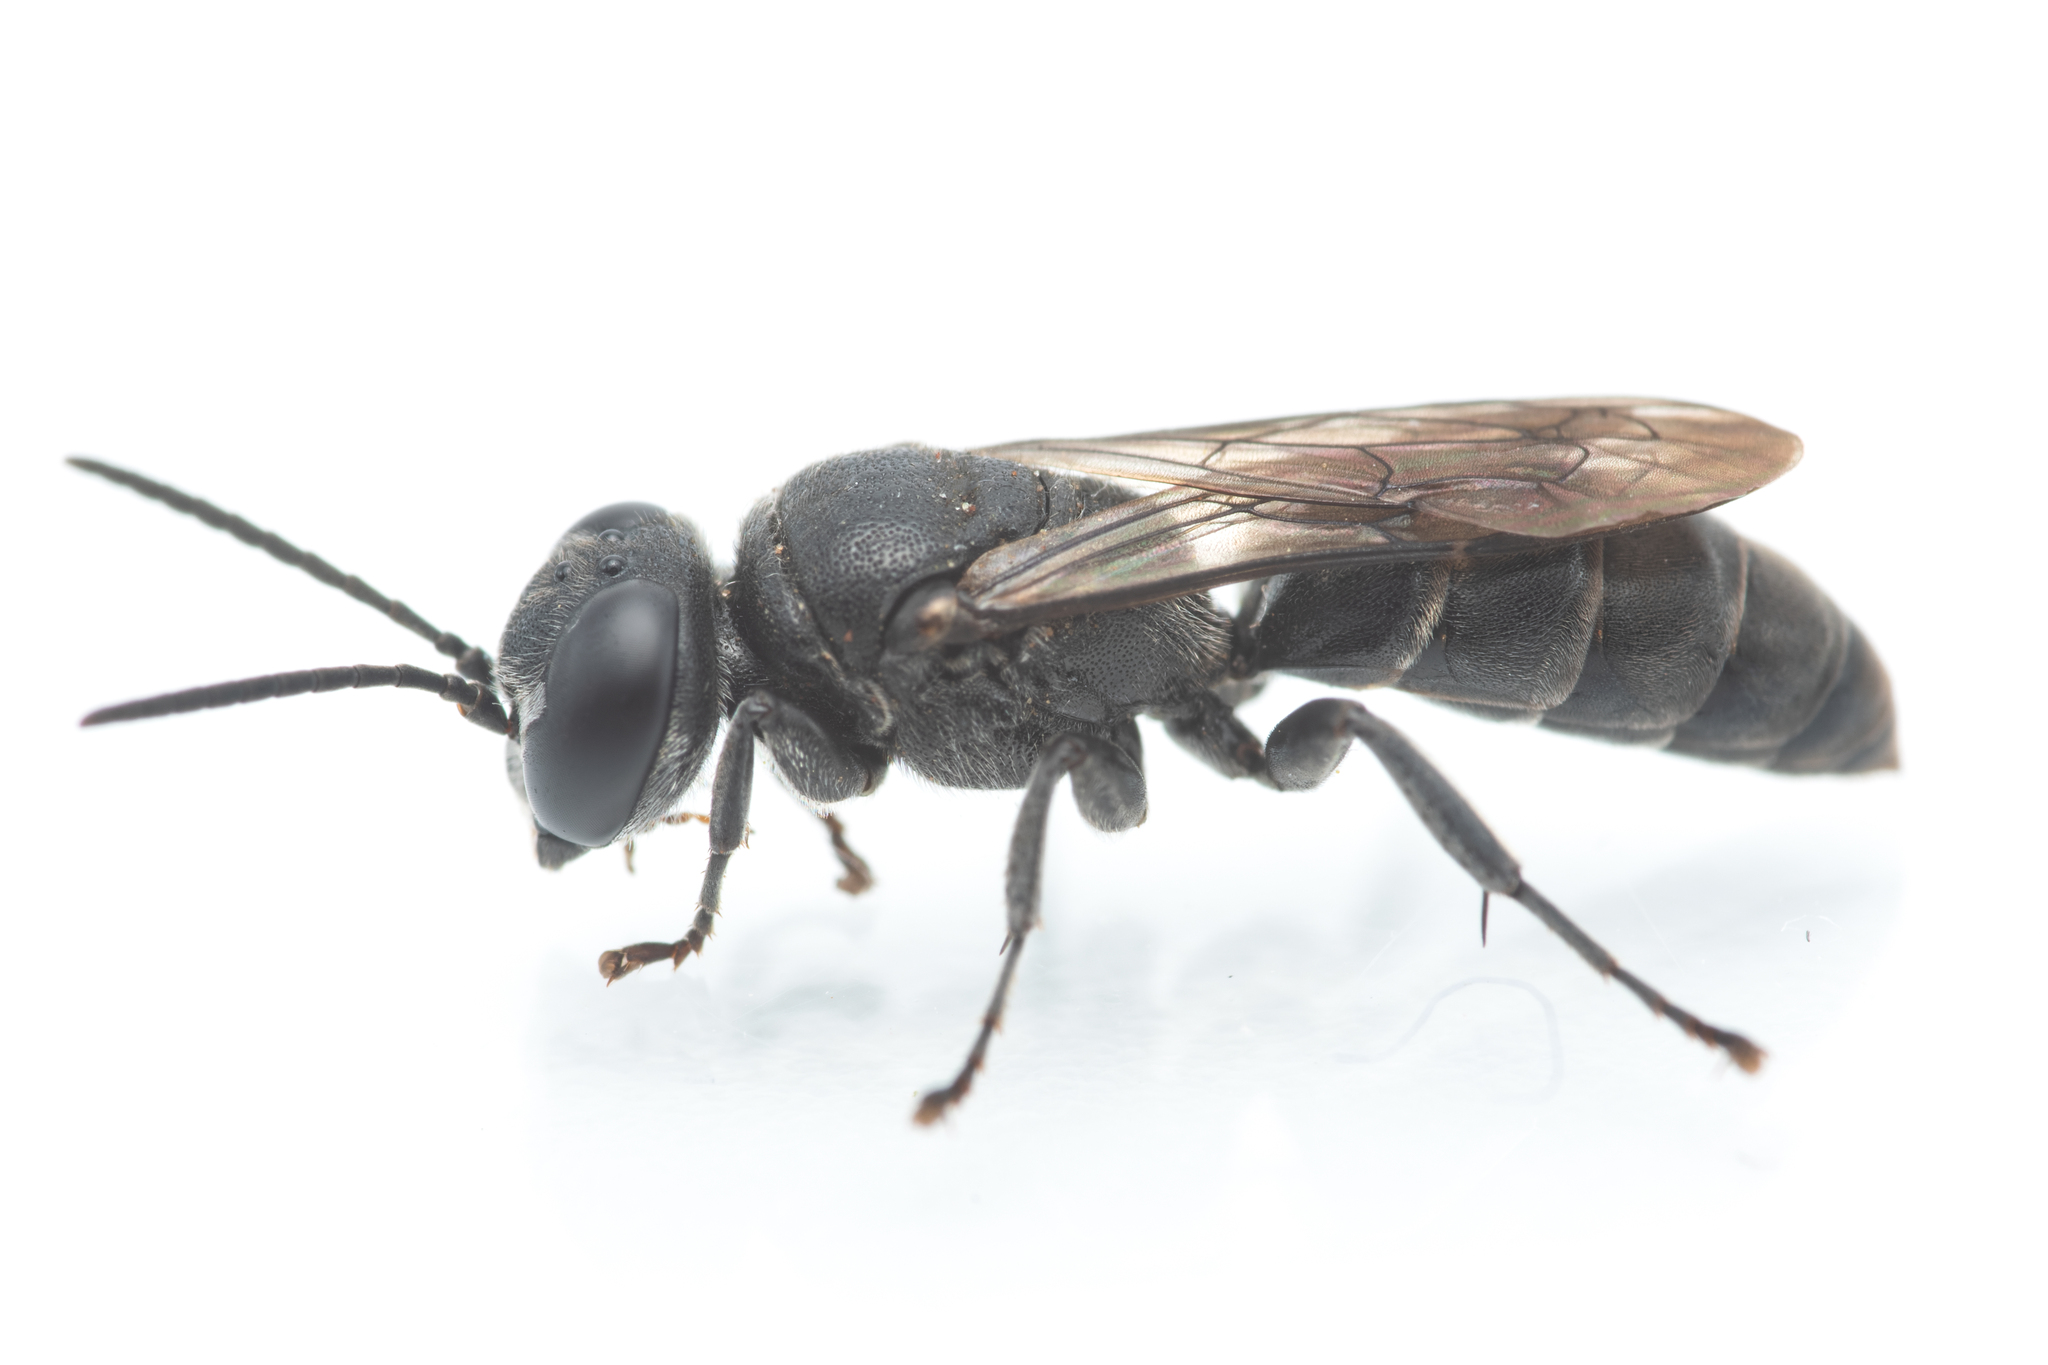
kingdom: Animalia
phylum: Arthropoda
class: Insecta
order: Hymenoptera
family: Crabronidae
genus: Pison
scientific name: Pison atrum
